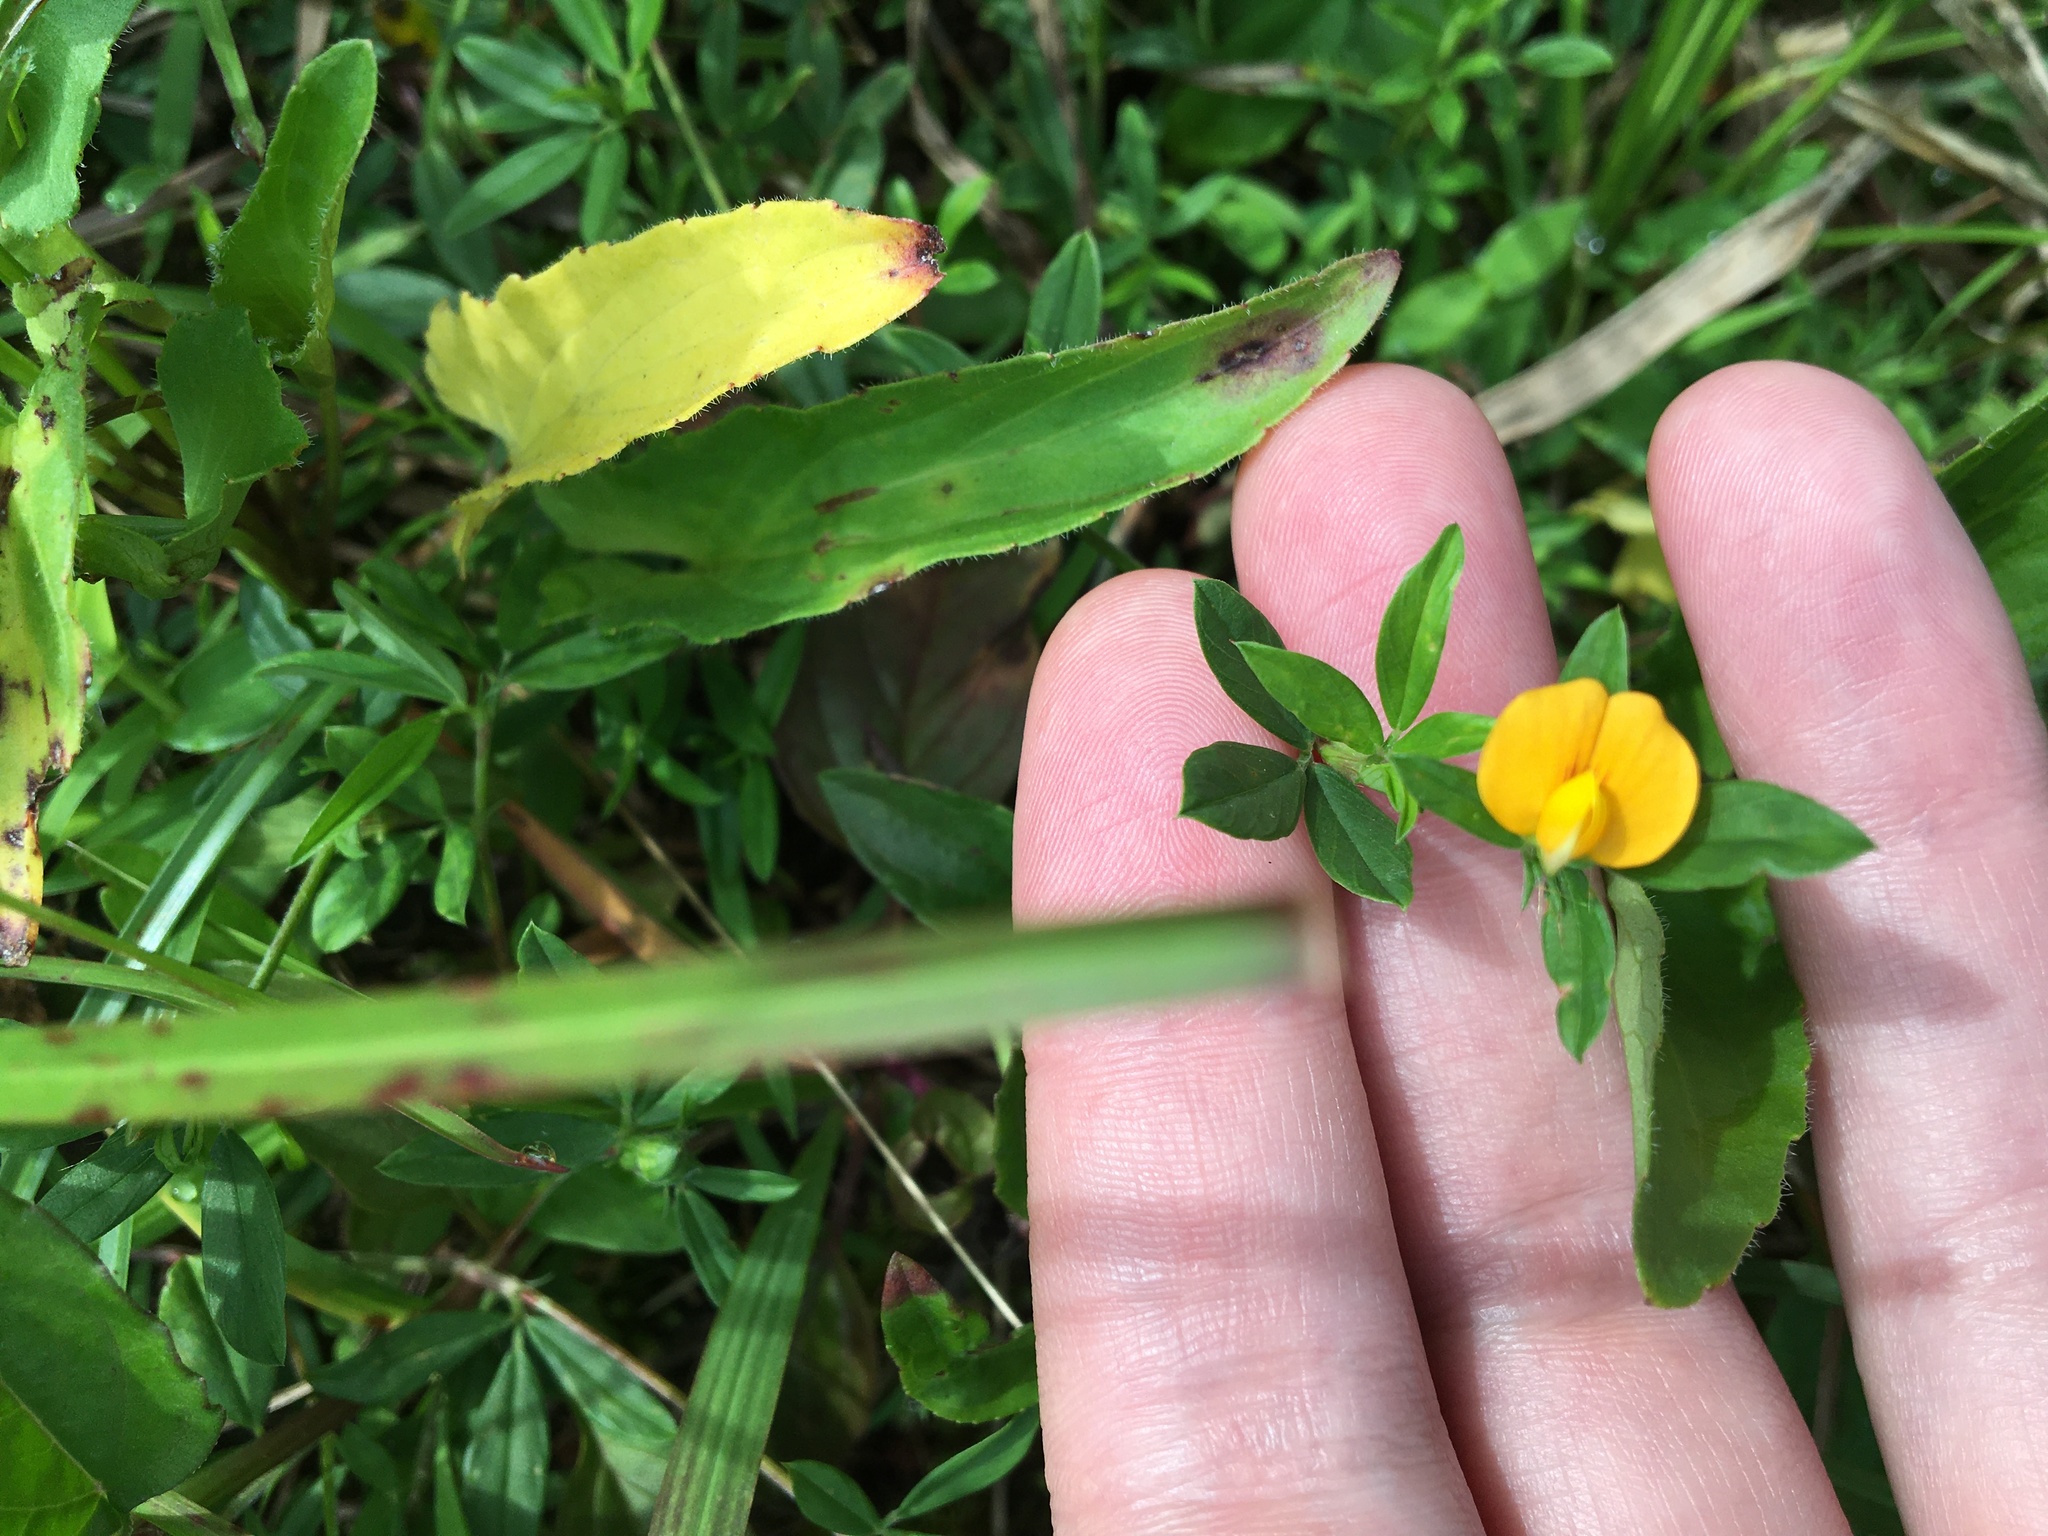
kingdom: Plantae
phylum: Tracheophyta
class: Magnoliopsida
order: Fabales
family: Fabaceae
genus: Stylosanthes
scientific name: Stylosanthes biflora
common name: Two-flower pencil-flower
